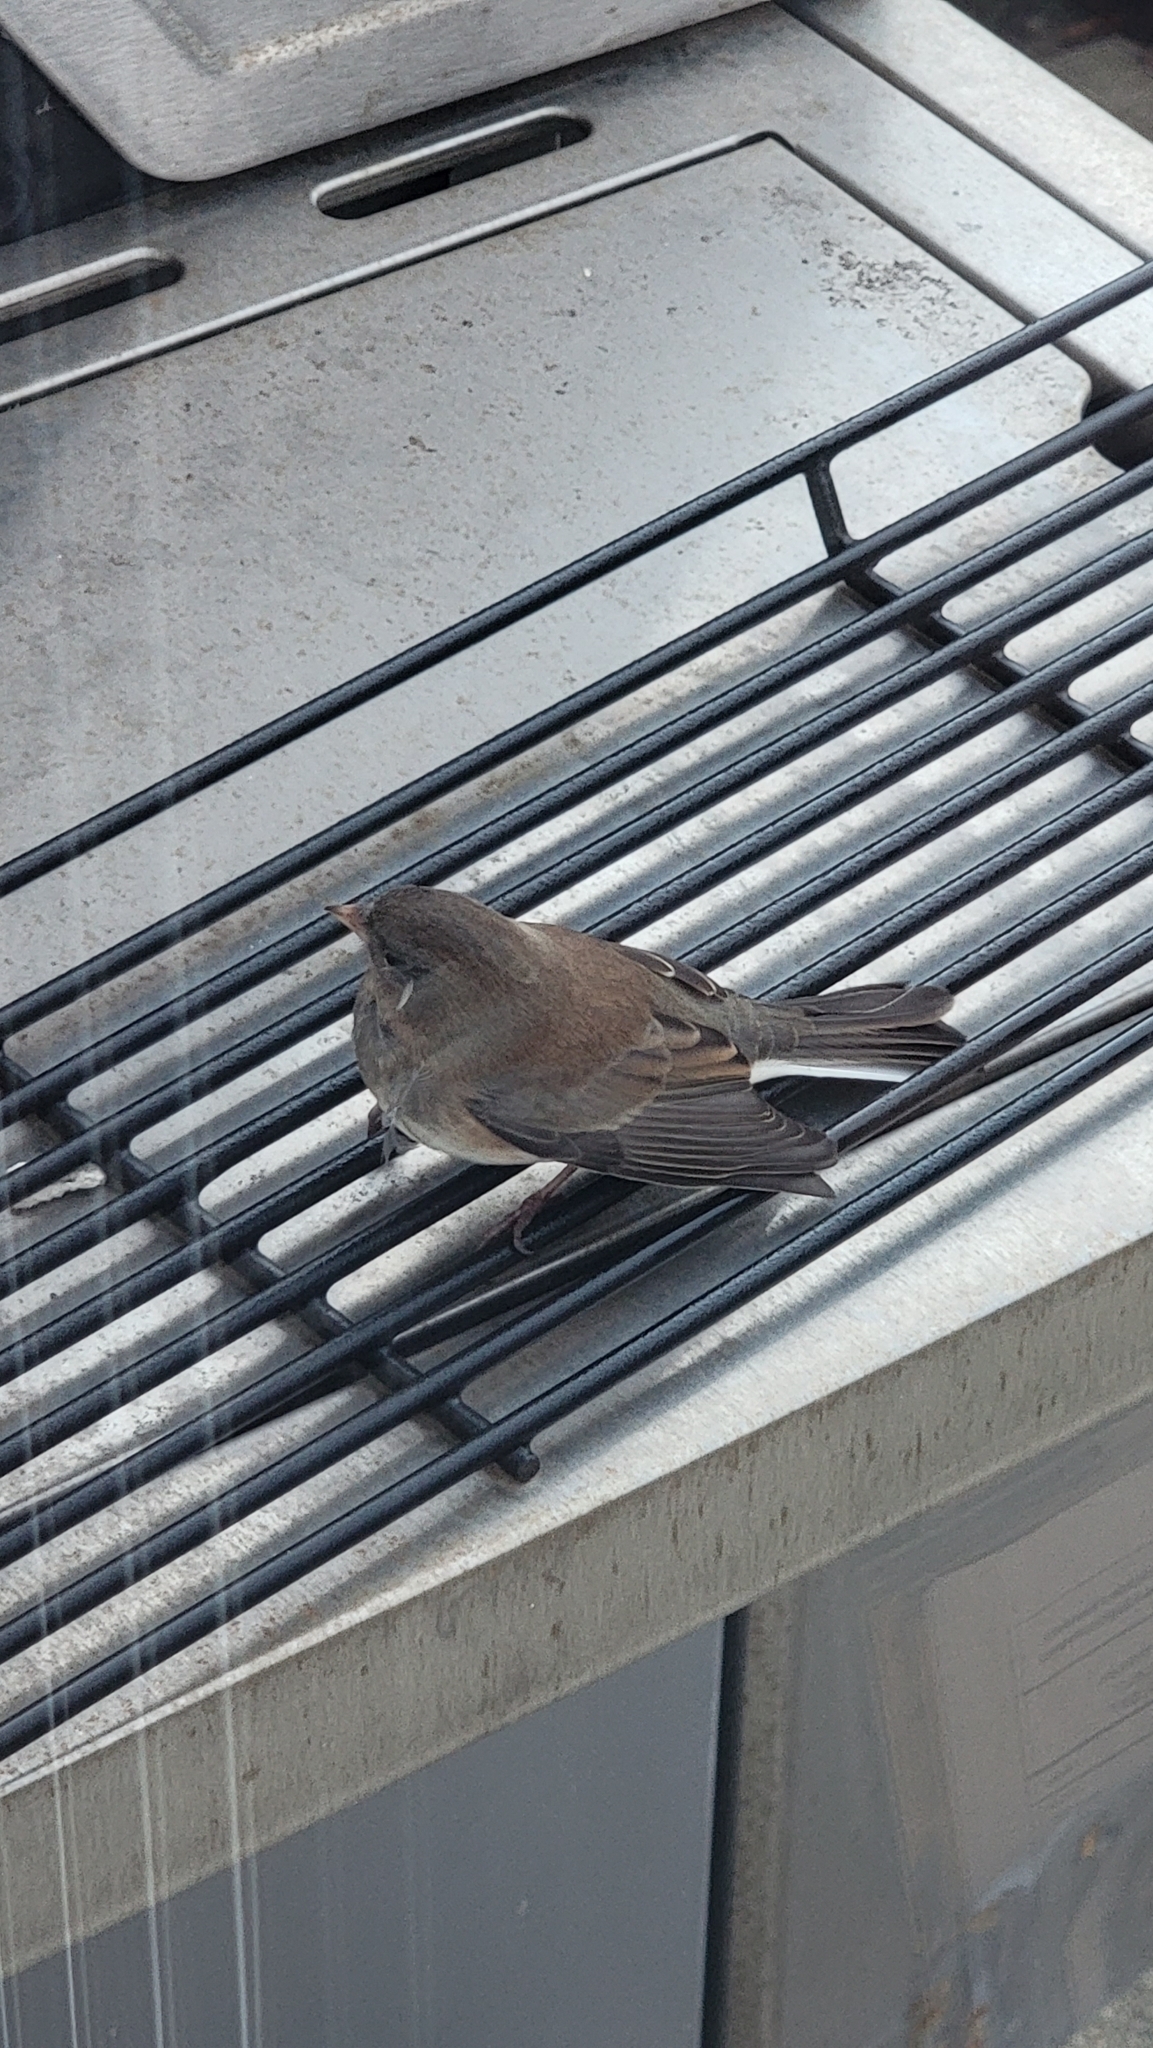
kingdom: Animalia
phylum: Chordata
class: Aves
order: Passeriformes
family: Passerellidae
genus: Junco
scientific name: Junco hyemalis
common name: Dark-eyed junco
